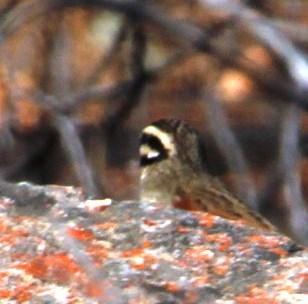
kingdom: Animalia
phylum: Chordata
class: Aves
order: Passeriformes
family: Emberizidae
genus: Emberiza
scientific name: Emberiza capensis
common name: Cape bunting
